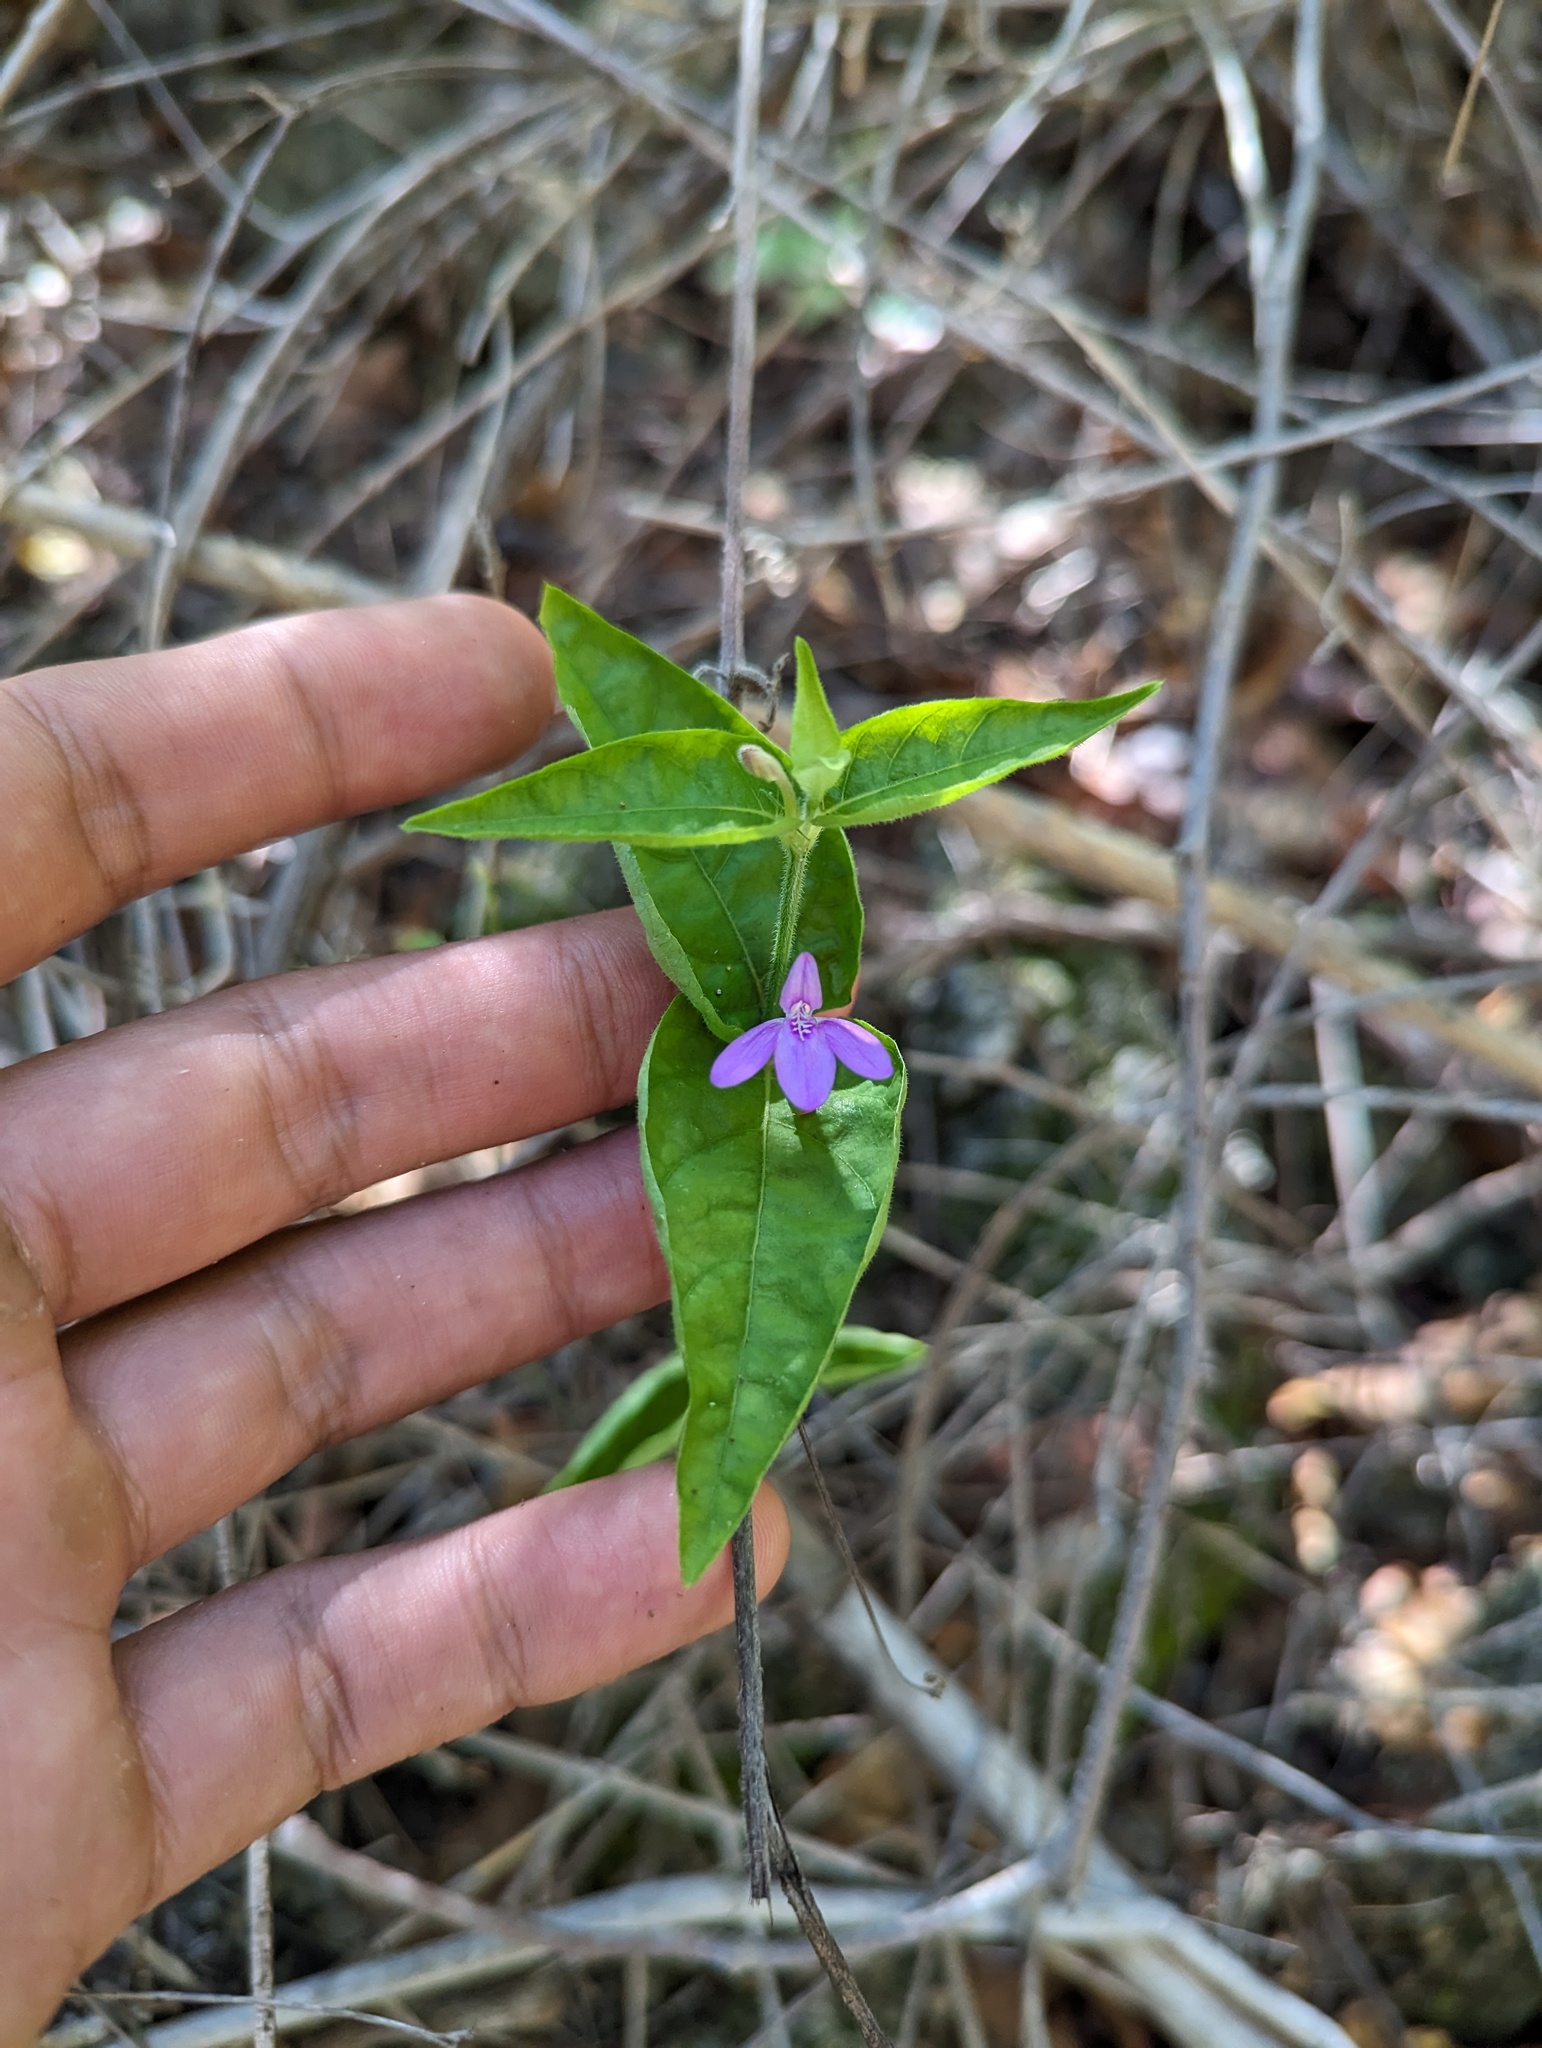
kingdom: Plantae
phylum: Tracheophyta
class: Magnoliopsida
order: Lamiales
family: Acanthaceae
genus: Dianthera
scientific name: Dianthera incerta
